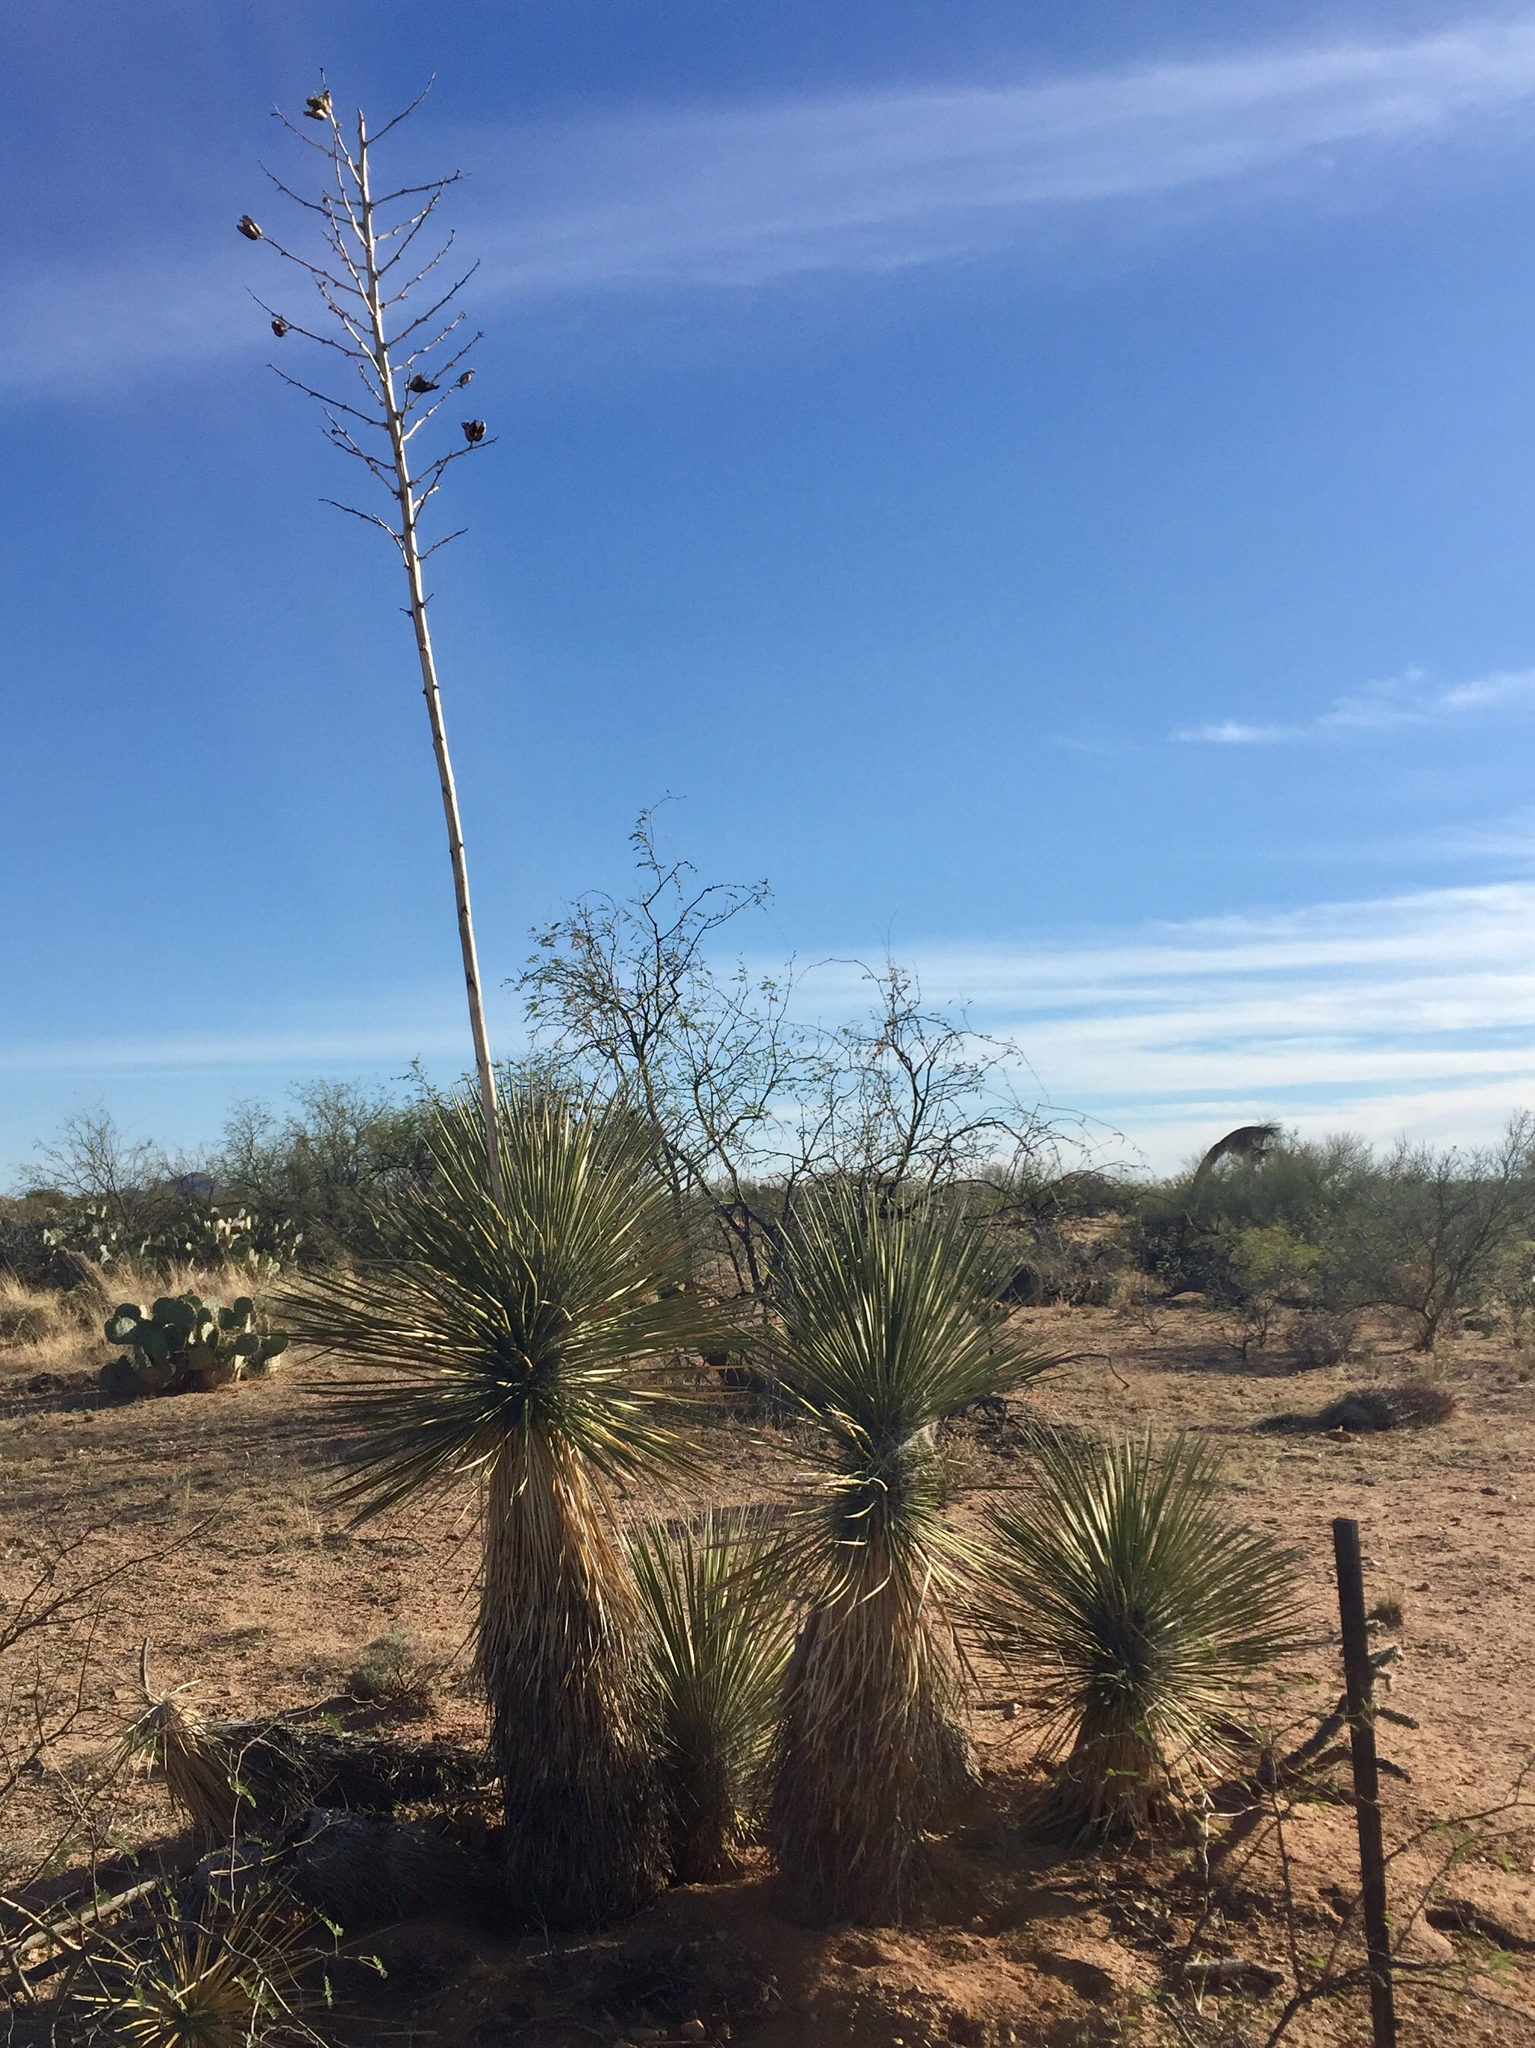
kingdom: Plantae
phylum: Tracheophyta
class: Liliopsida
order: Asparagales
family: Asparagaceae
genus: Yucca
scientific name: Yucca elata
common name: Palmella
